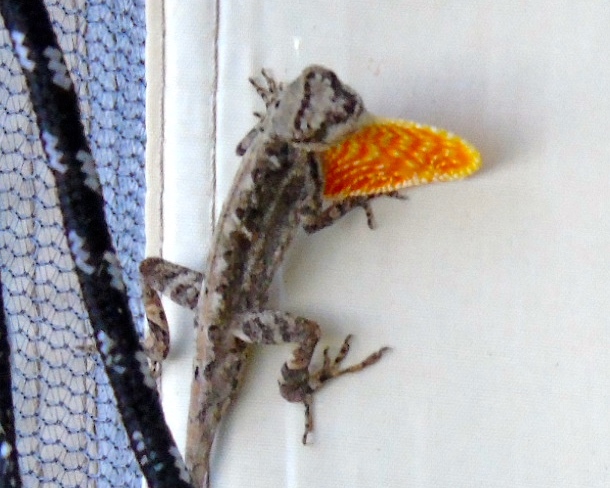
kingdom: Animalia
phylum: Chordata
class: Squamata
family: Dactyloidae
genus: Anolis
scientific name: Anolis nebulosus
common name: Clouded anole
